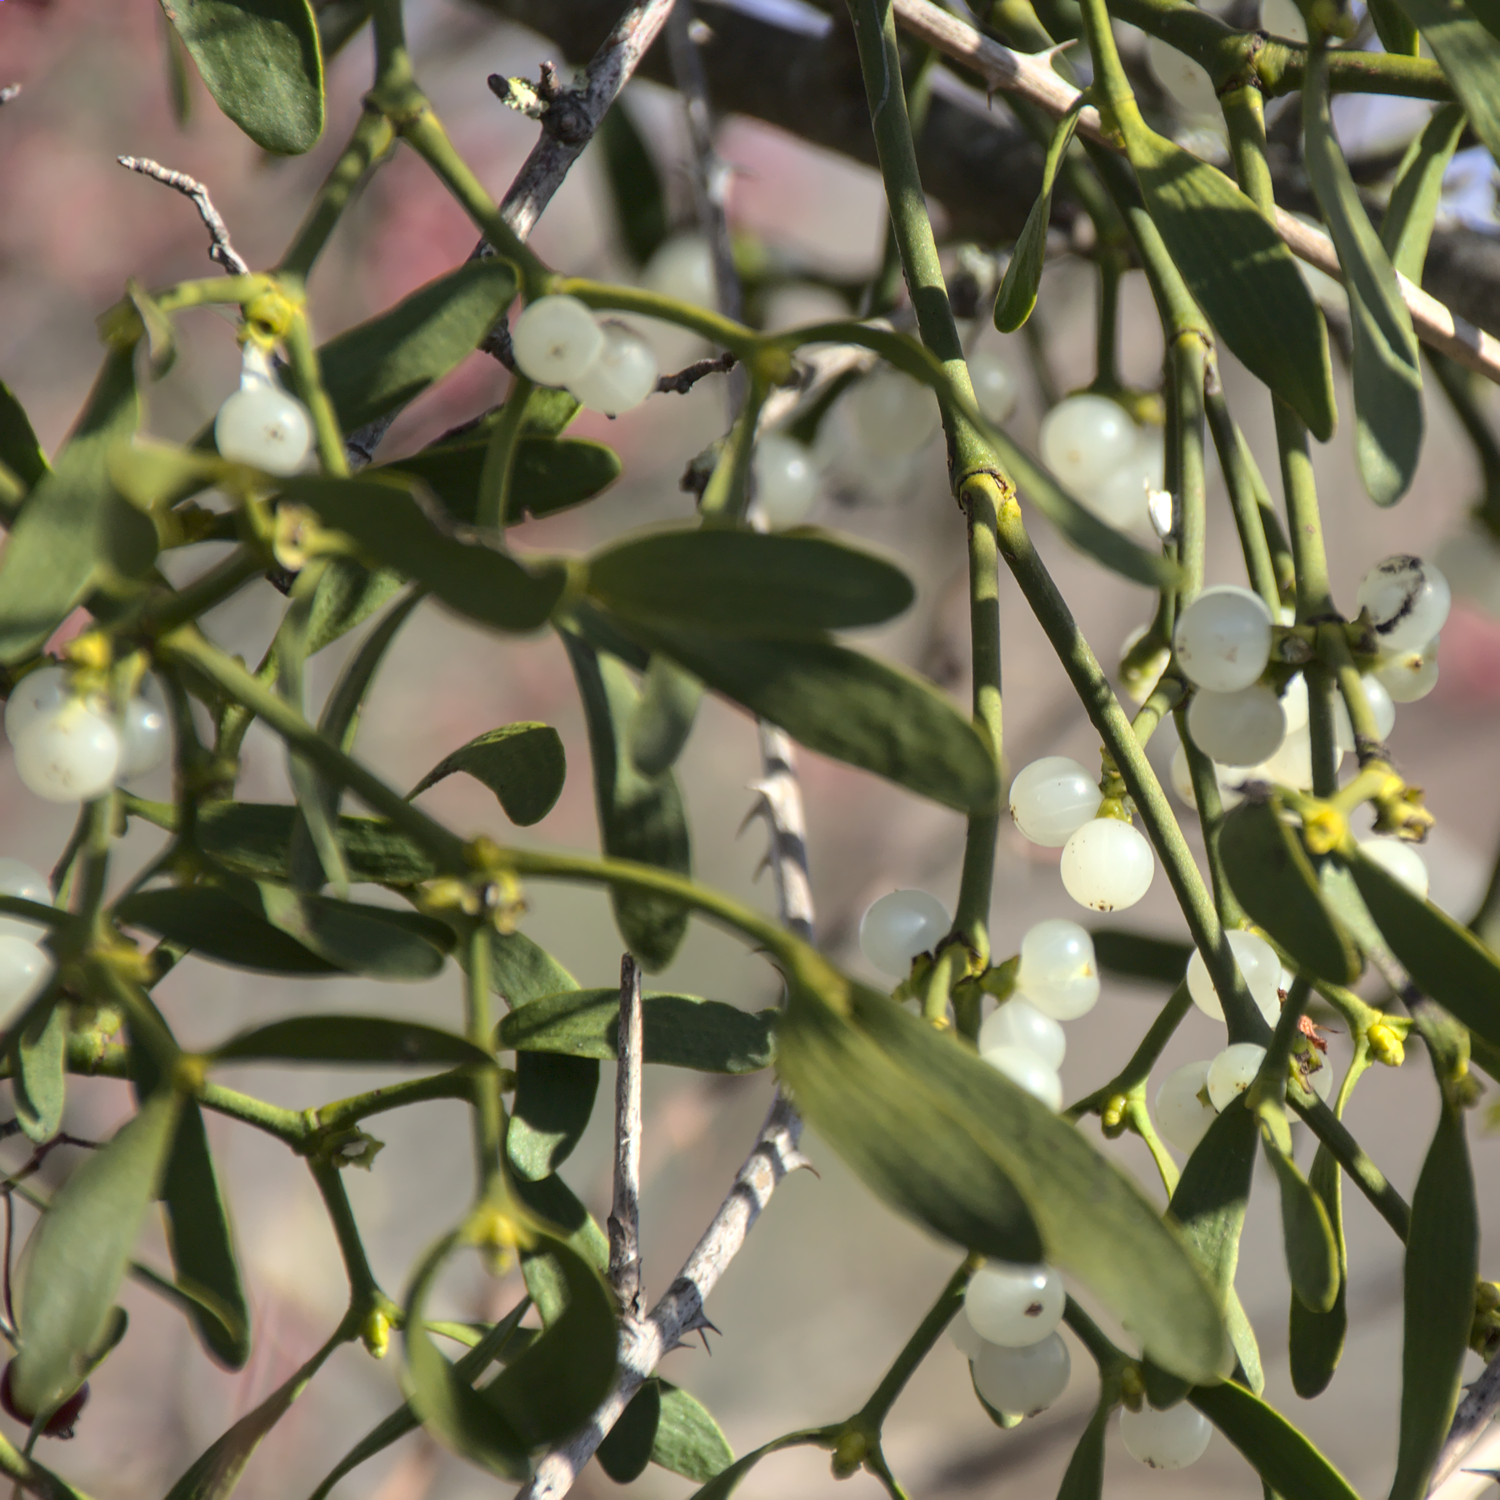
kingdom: Plantae
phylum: Tracheophyta
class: Magnoliopsida
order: Santalales
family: Viscaceae
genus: Viscum
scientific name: Viscum album
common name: Mistletoe
